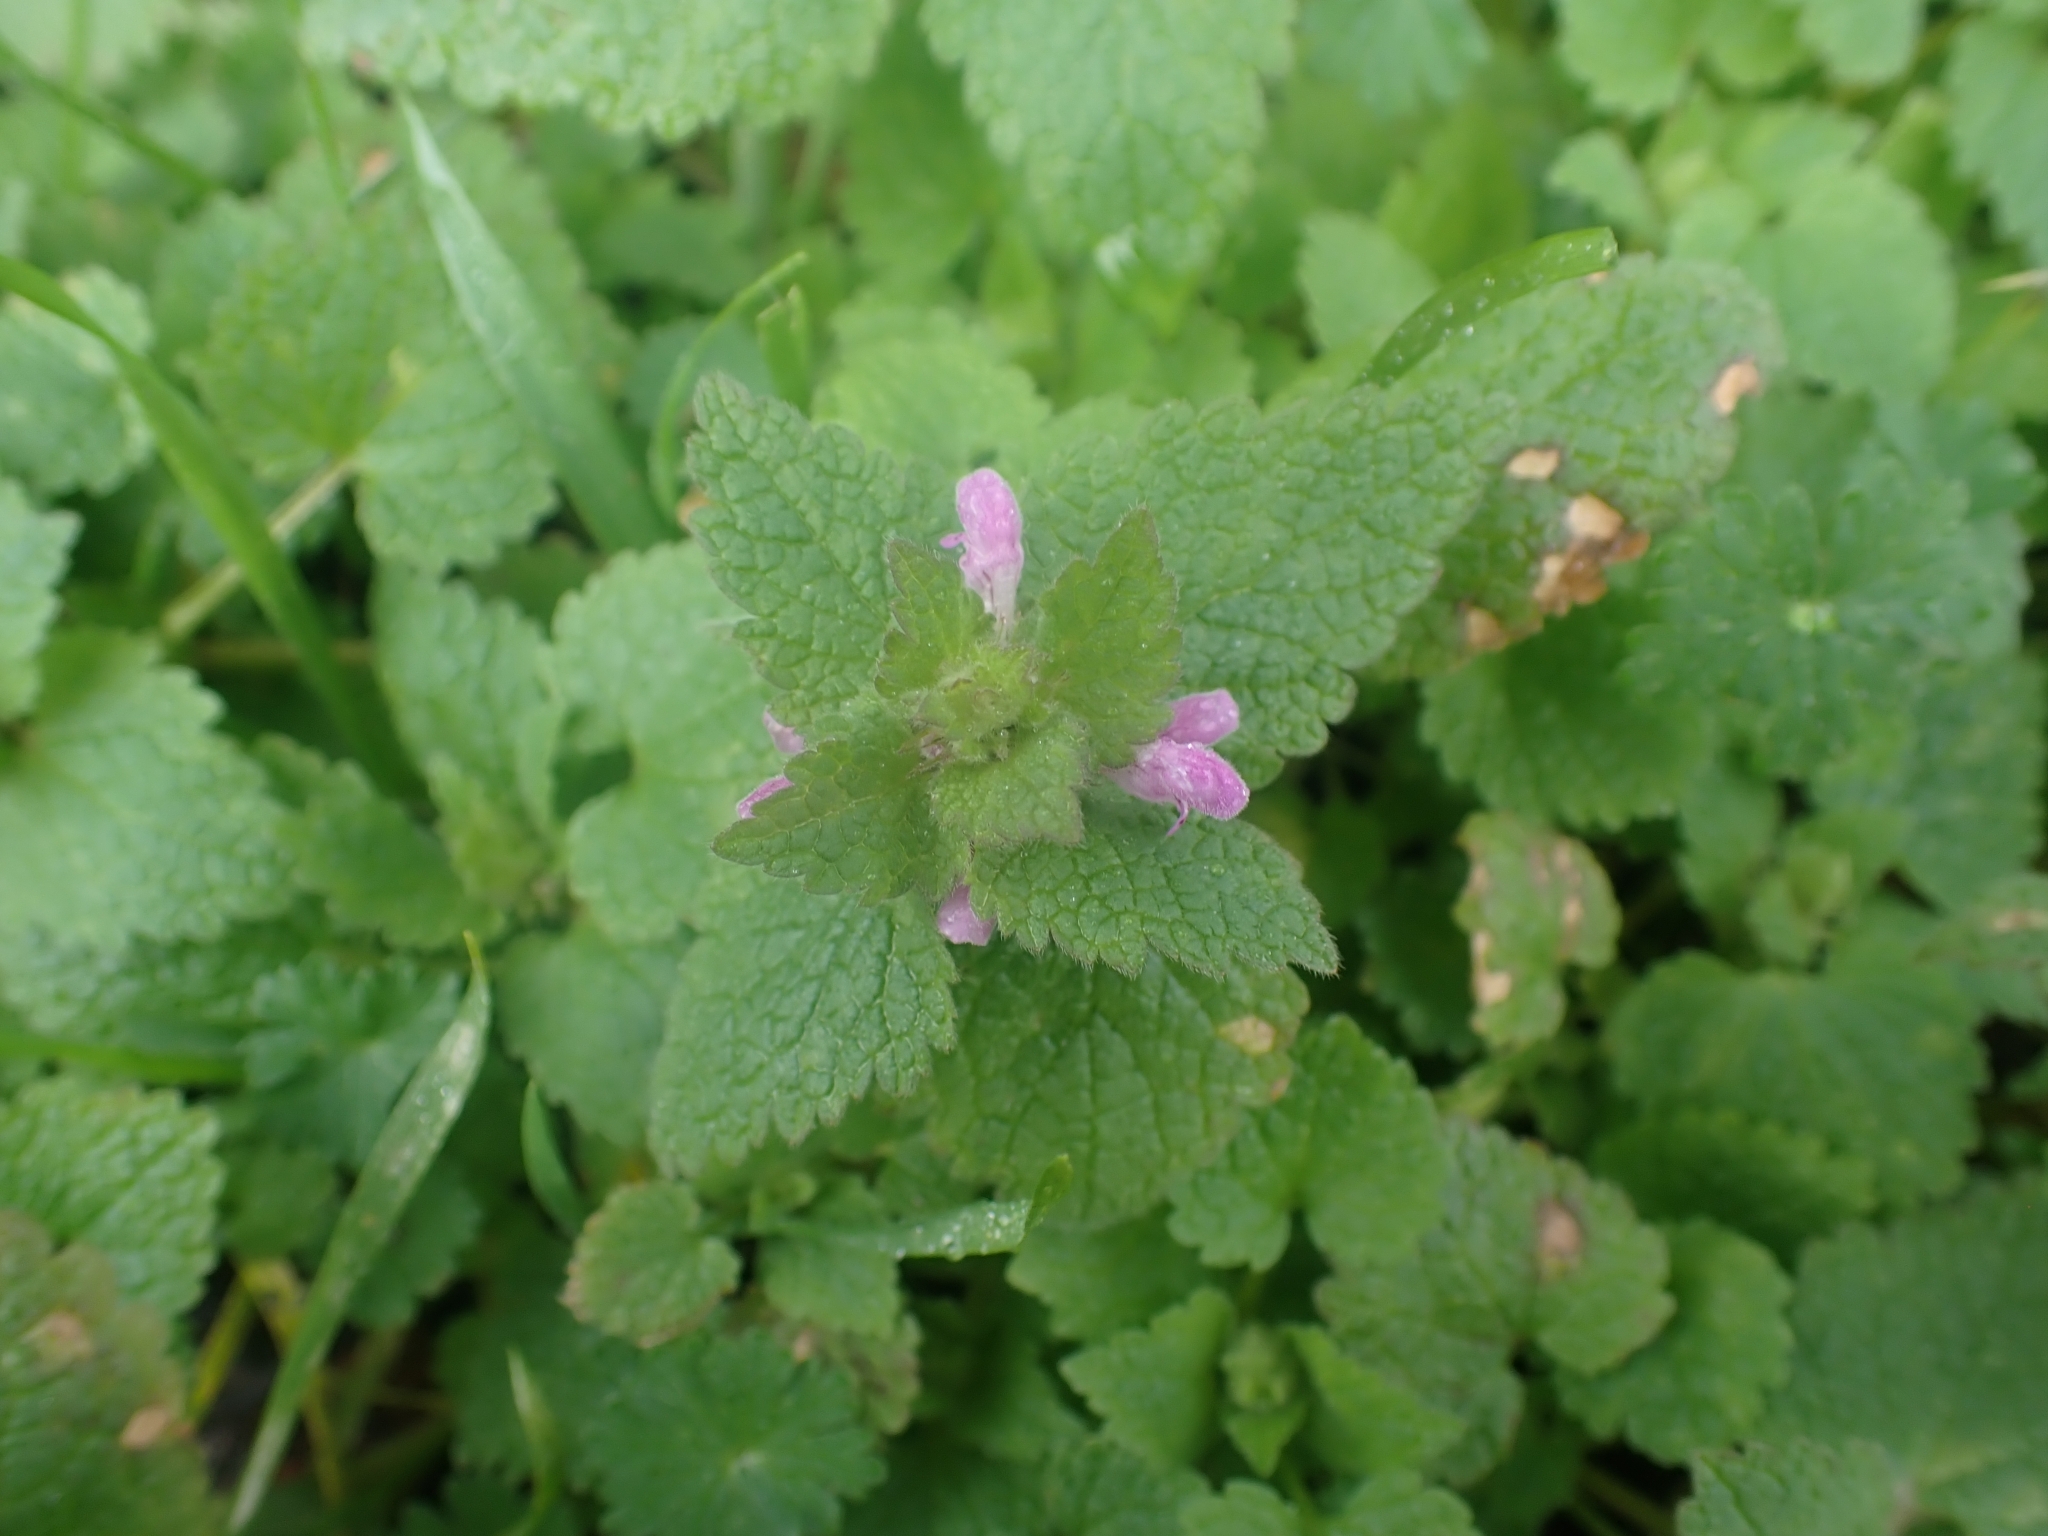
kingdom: Plantae
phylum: Tracheophyta
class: Magnoliopsida
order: Lamiales
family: Lamiaceae
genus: Lamium
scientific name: Lamium purpureum
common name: Red dead-nettle
